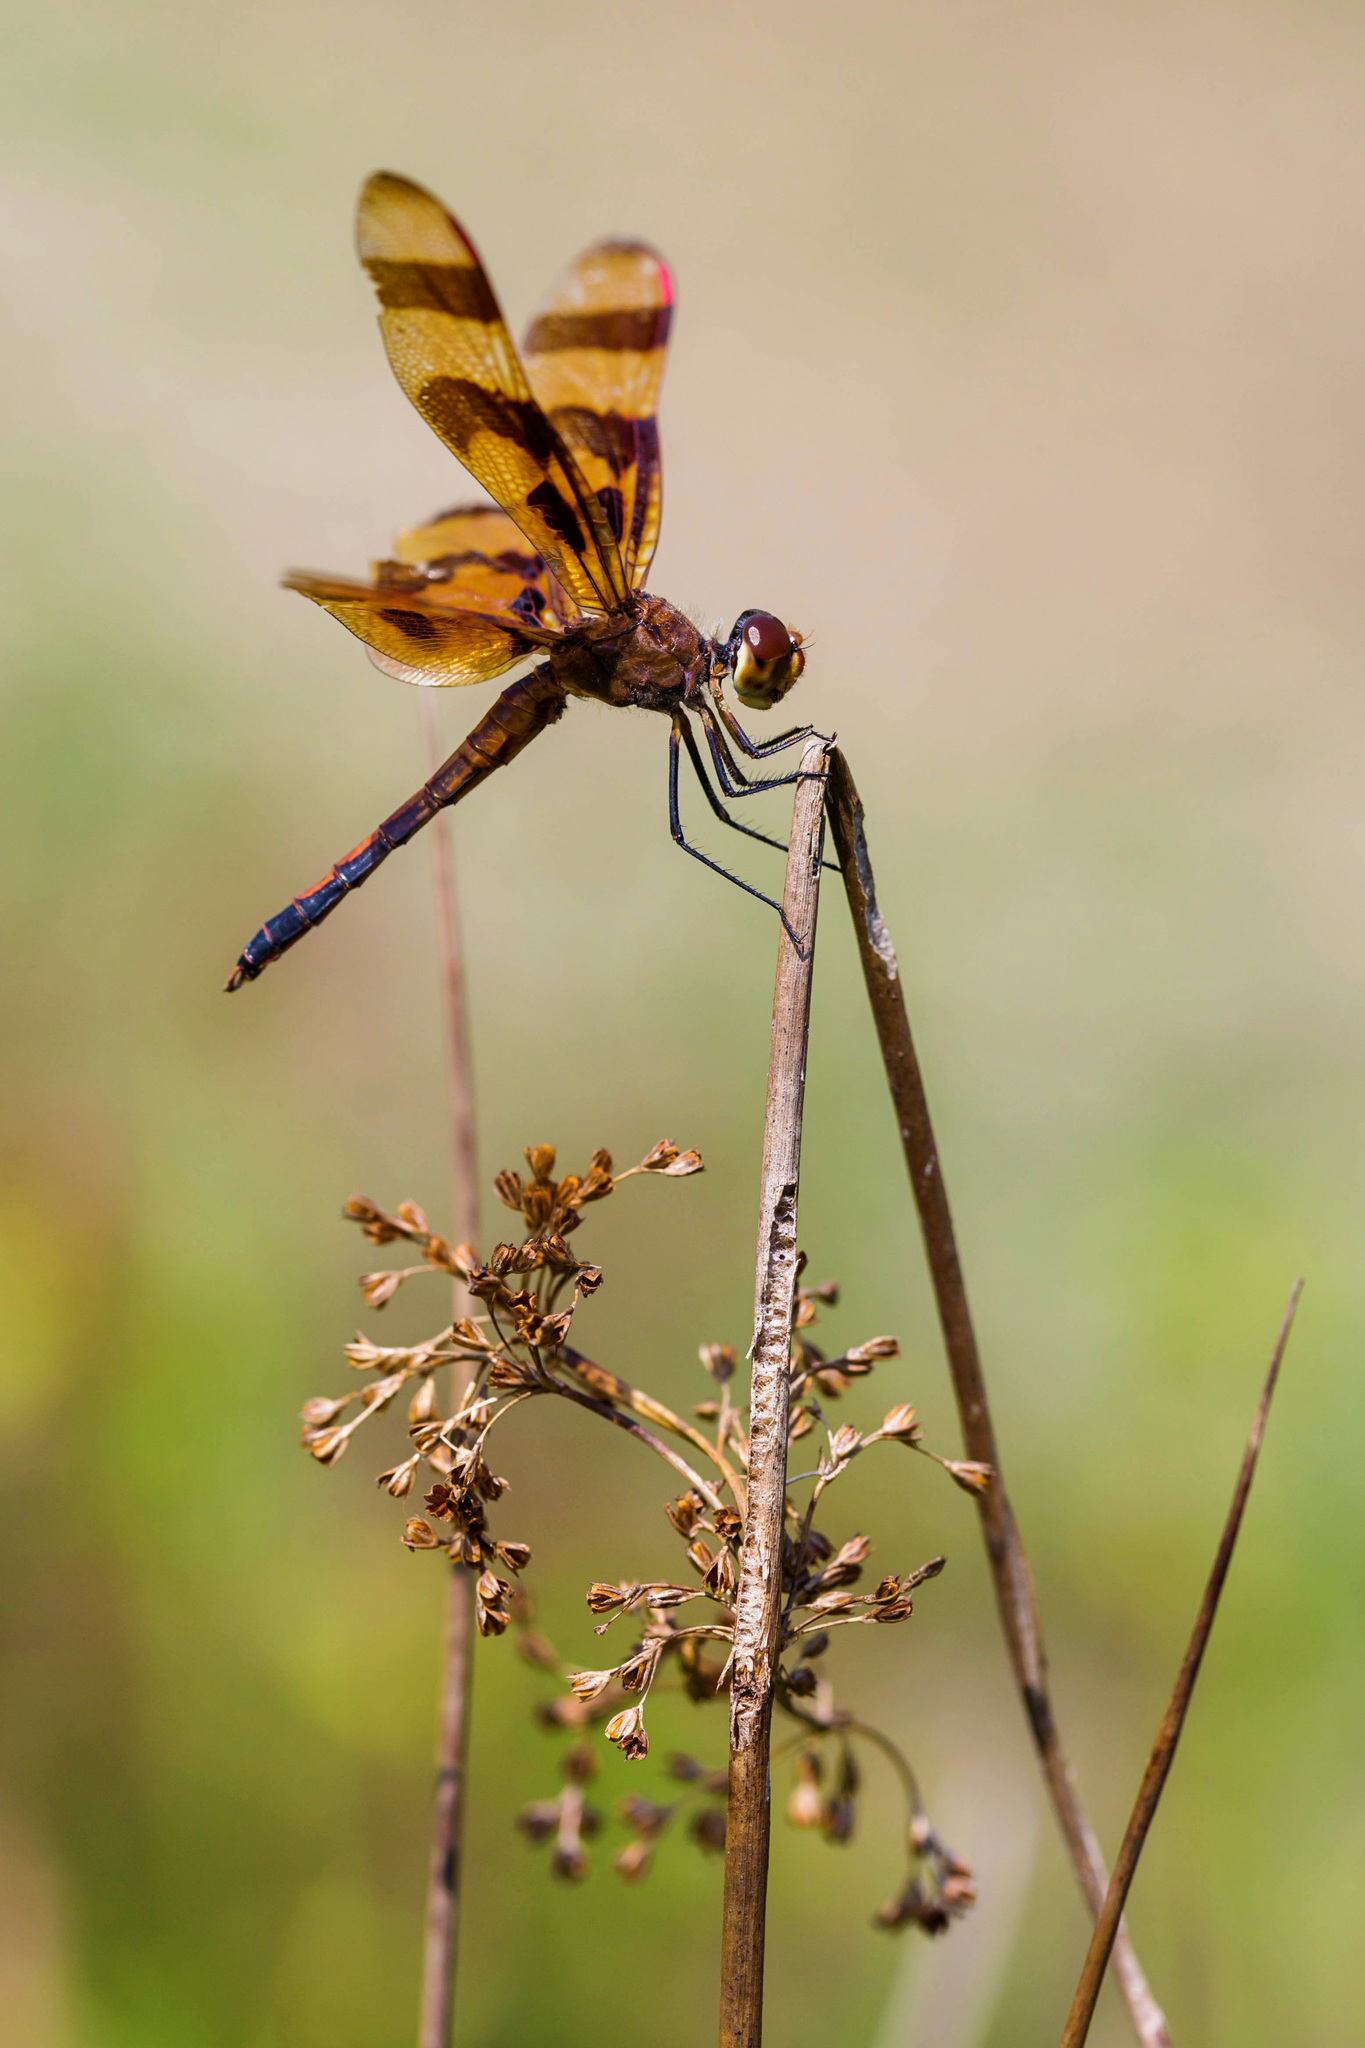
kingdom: Animalia
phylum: Arthropoda
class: Insecta
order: Odonata
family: Libellulidae
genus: Celithemis
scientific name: Celithemis eponina
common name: Halloween pennant
